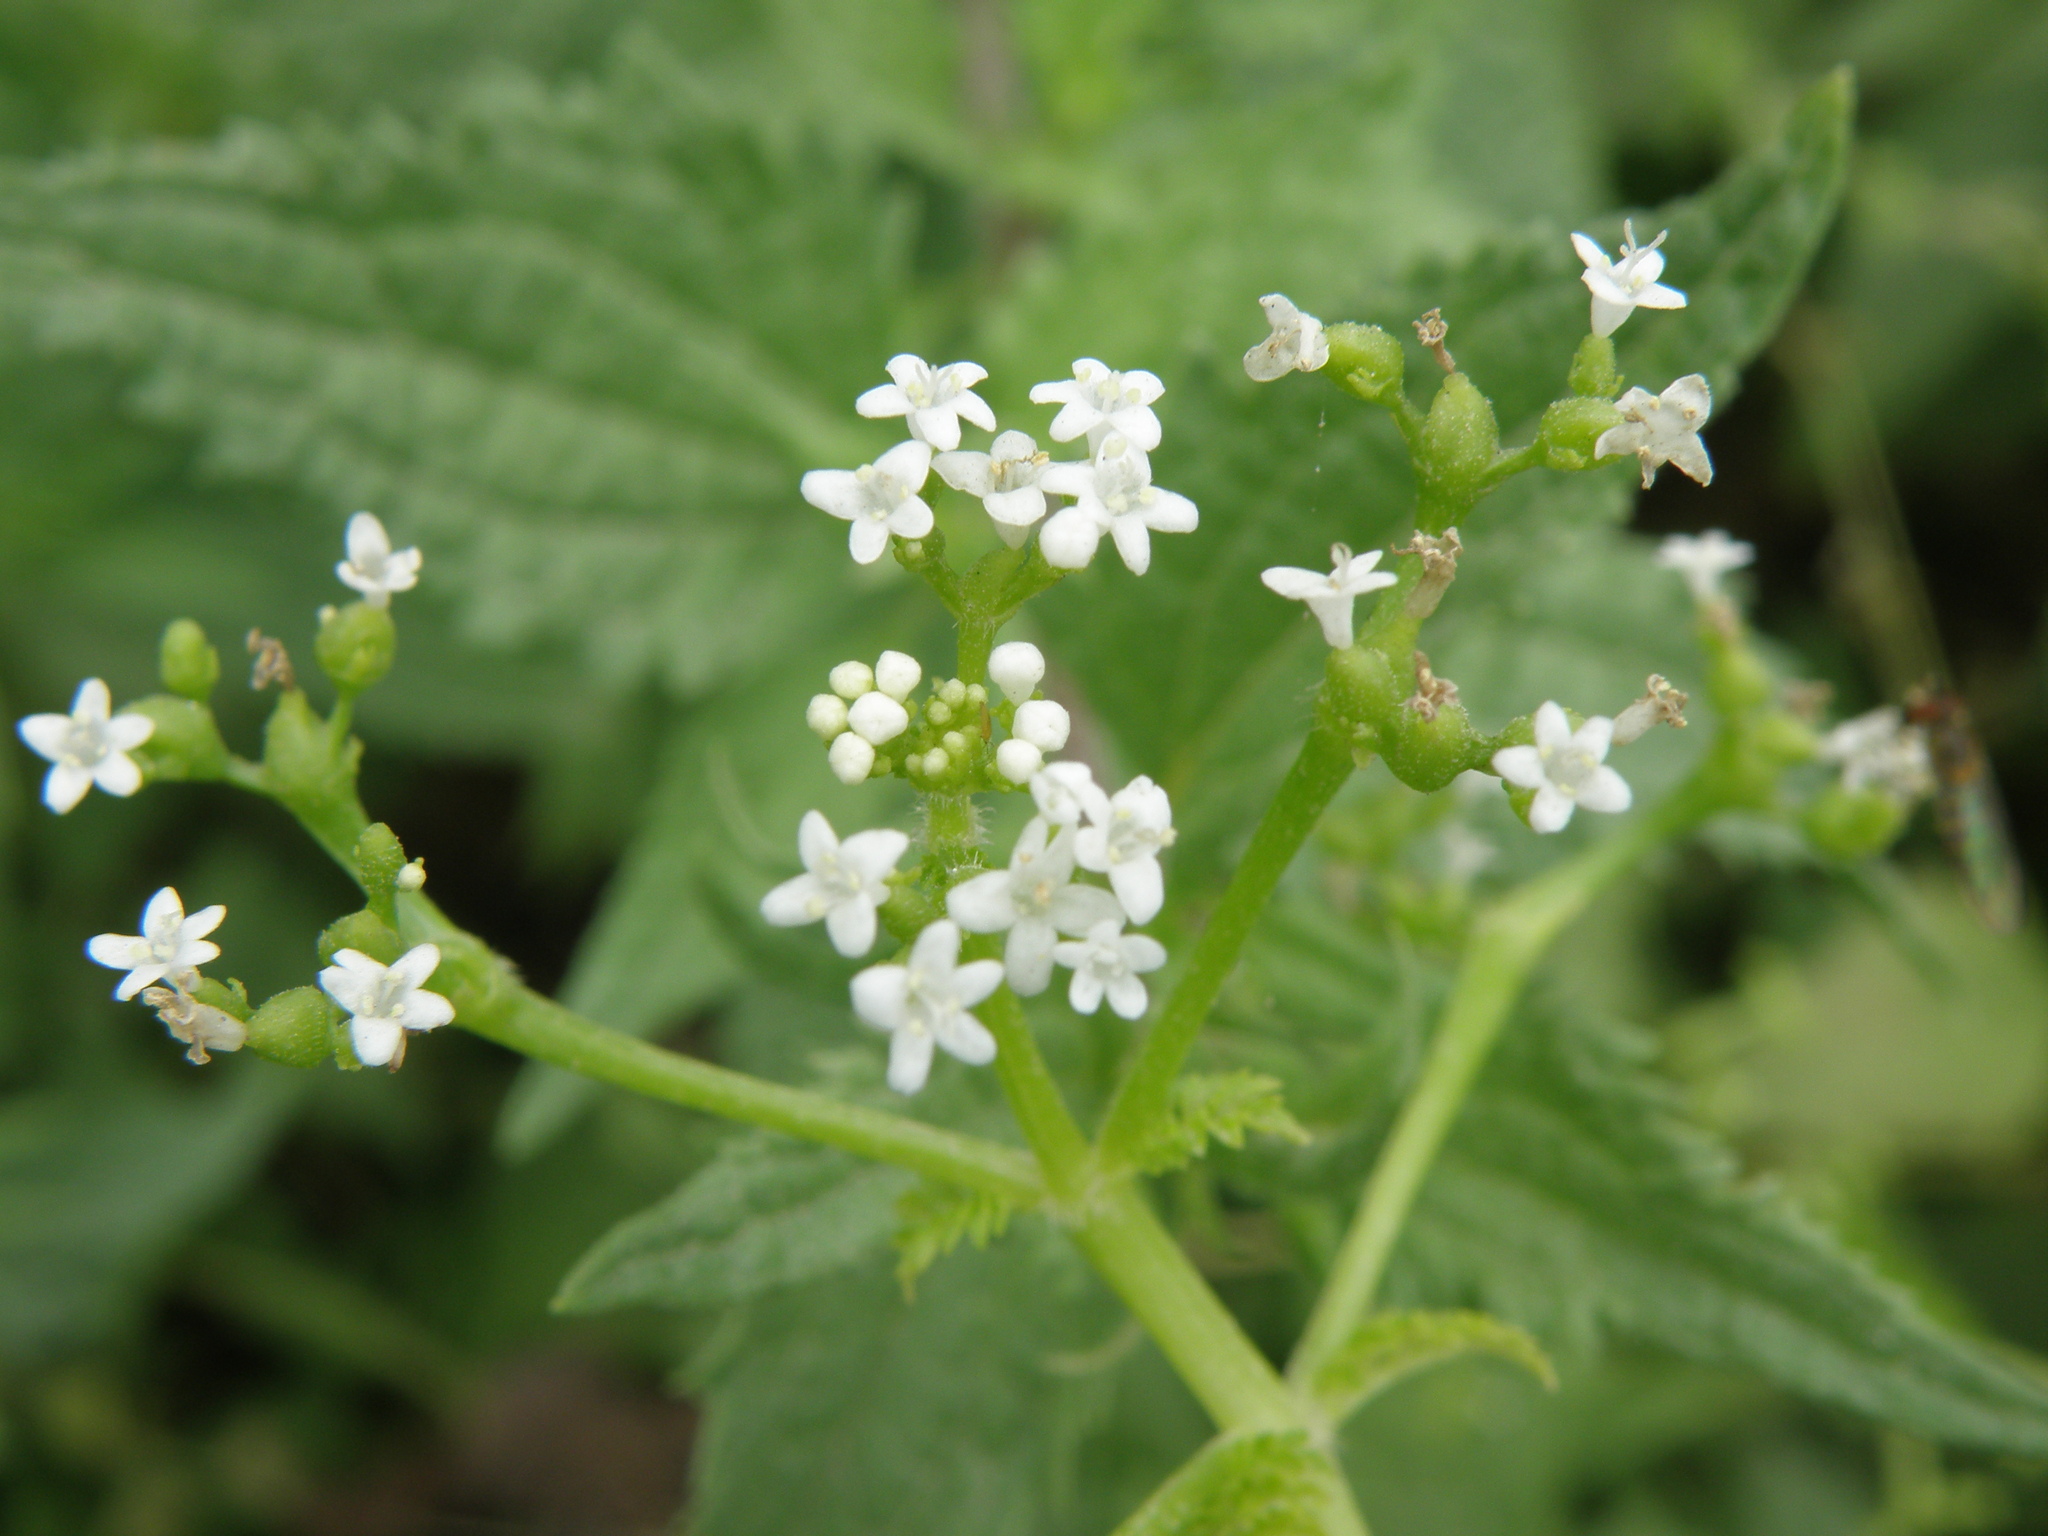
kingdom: Plantae
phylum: Tracheophyta
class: Magnoliopsida
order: Dipsacales
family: Caprifoliaceae
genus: Valeriana
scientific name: Valeriana chaerophylloides
